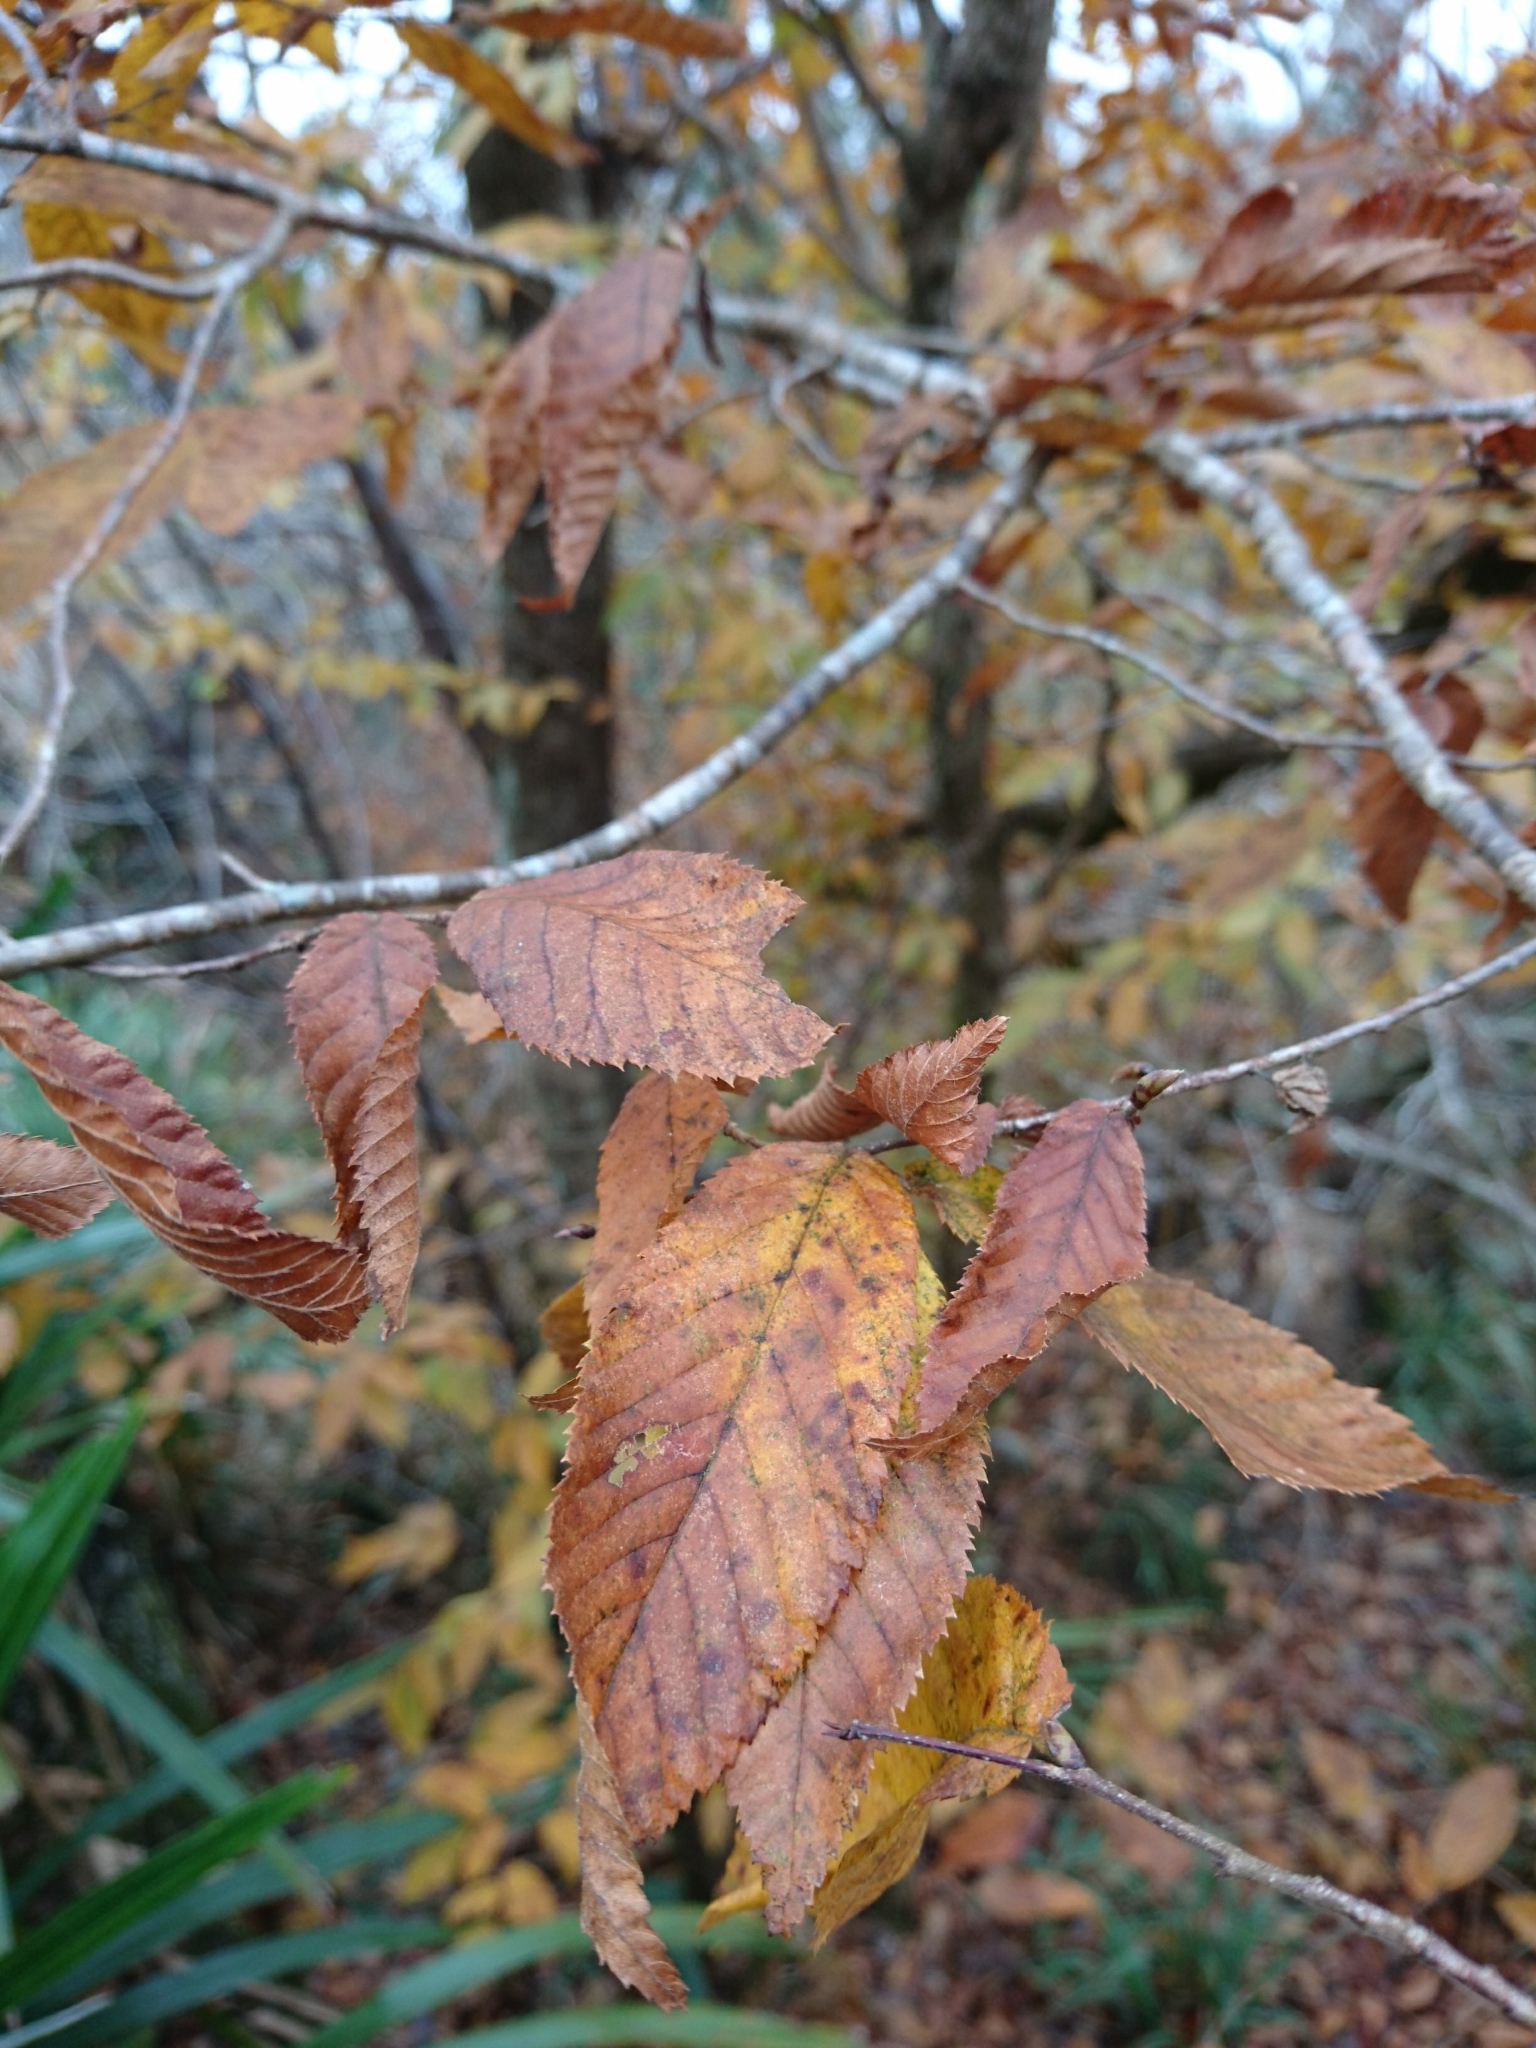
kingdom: Plantae
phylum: Tracheophyta
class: Magnoliopsida
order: Fagales
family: Betulaceae
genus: Ostrya
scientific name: Ostrya virginiana
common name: Ironwood
